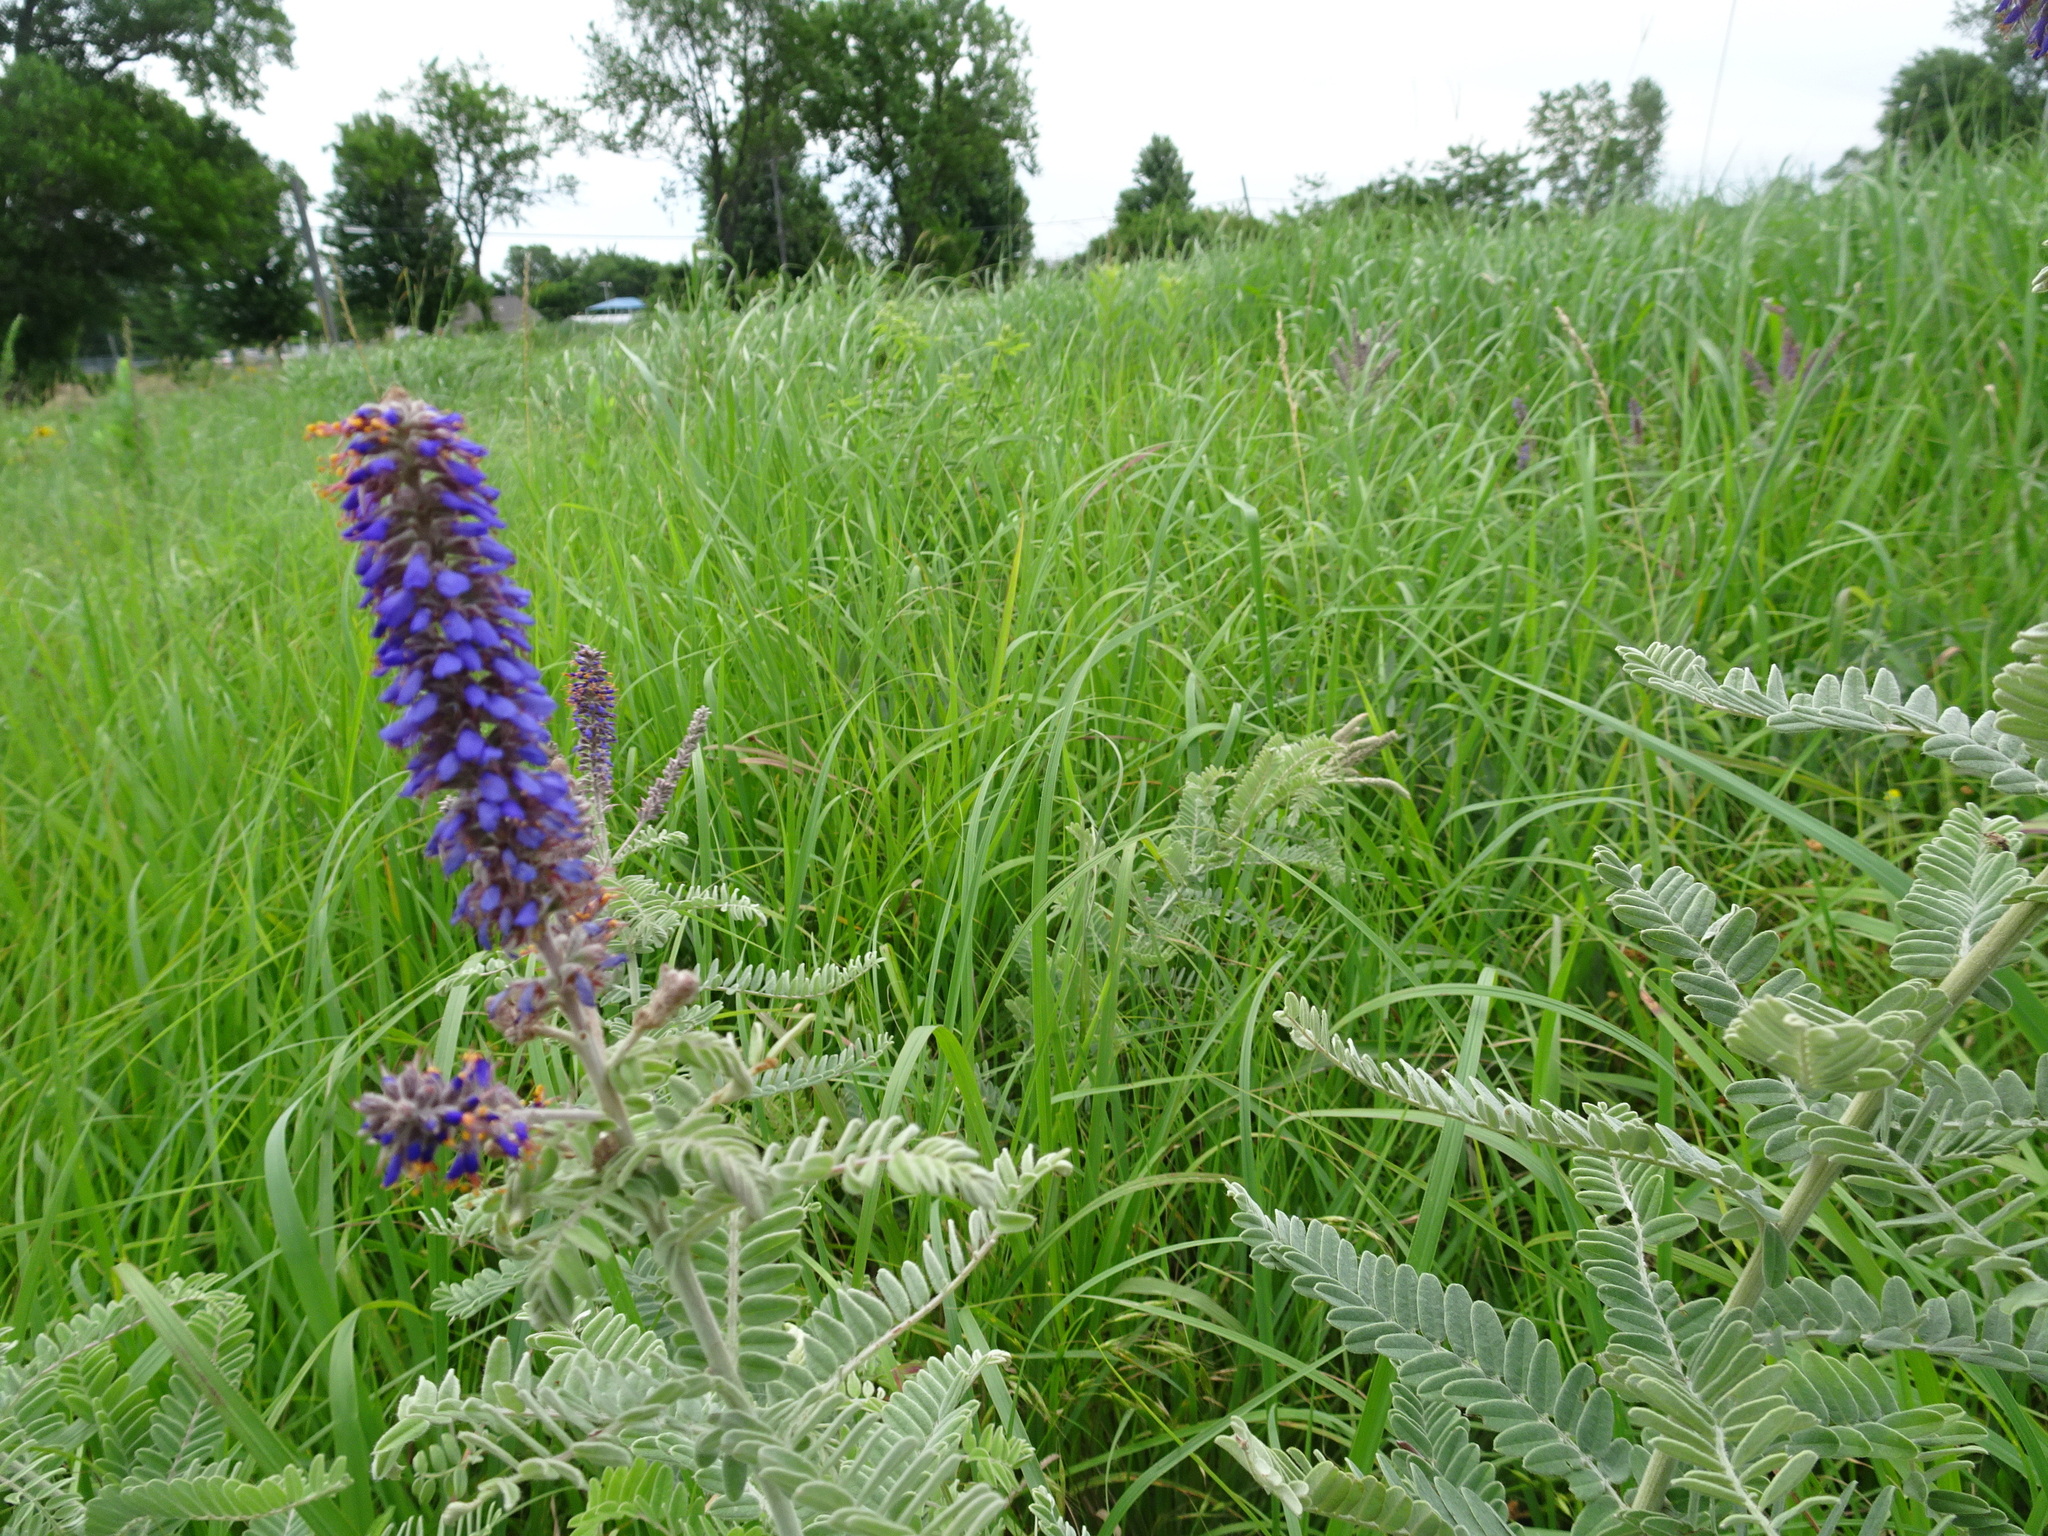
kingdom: Plantae
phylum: Tracheophyta
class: Magnoliopsida
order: Fabales
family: Fabaceae
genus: Amorpha
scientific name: Amorpha canescens
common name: Leadplant
